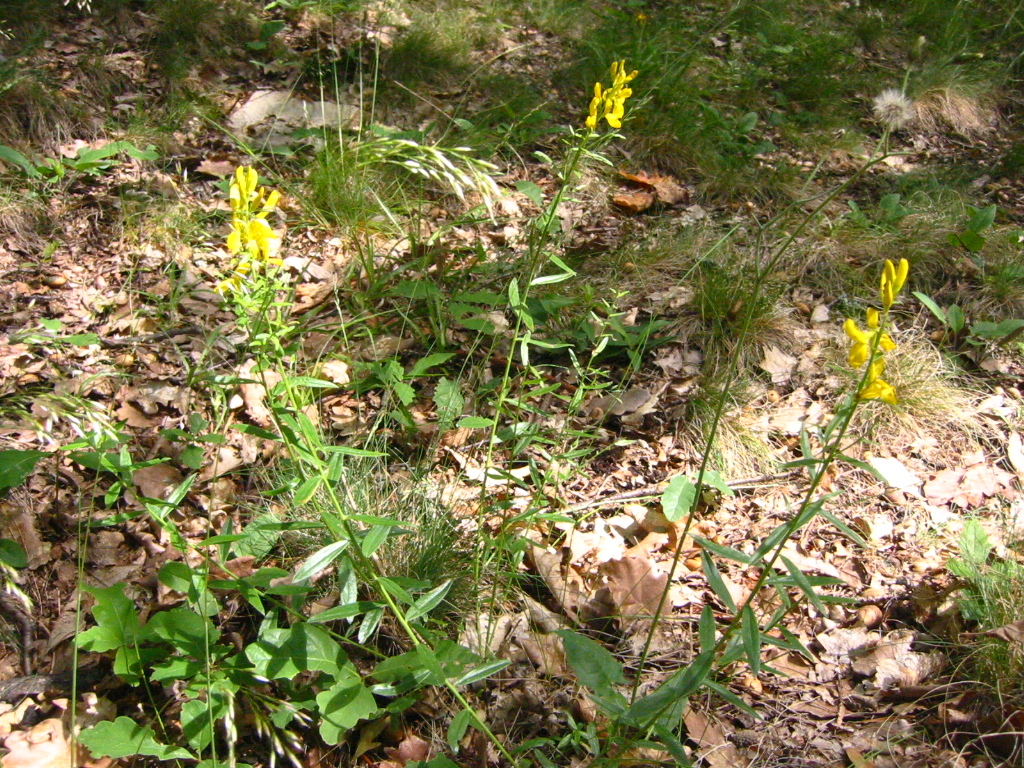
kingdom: Plantae
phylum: Tracheophyta
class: Magnoliopsida
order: Fabales
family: Fabaceae
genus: Genista
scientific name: Genista tinctoria
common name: Dyer's greenweed
